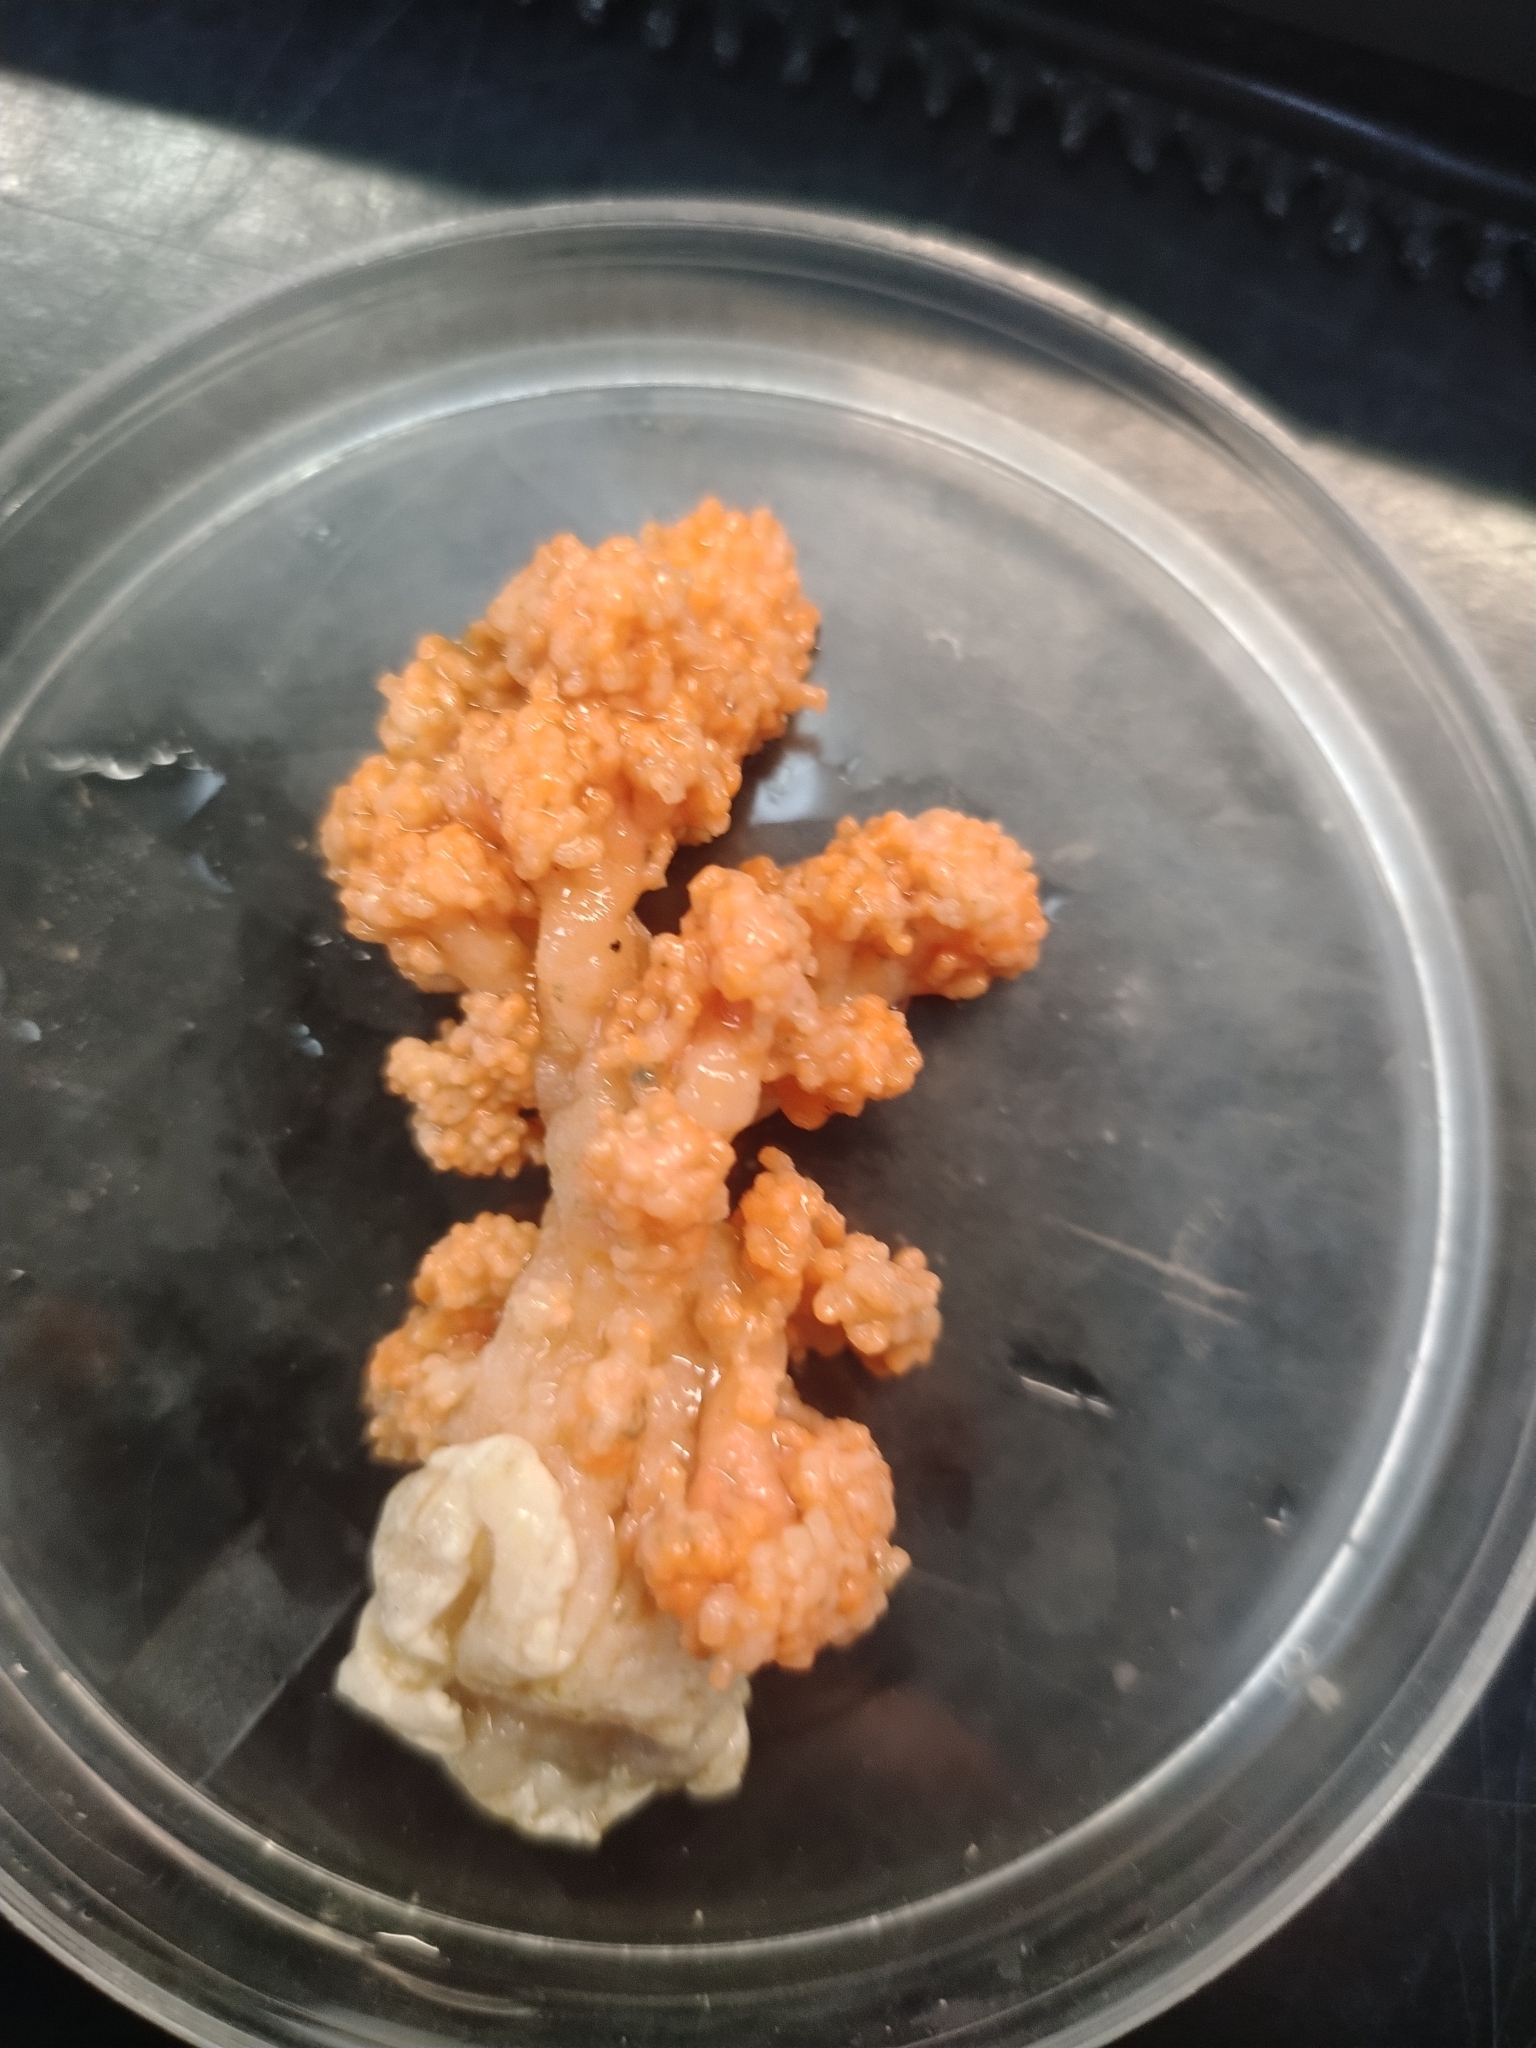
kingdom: Animalia
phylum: Cnidaria
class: Anthozoa
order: Malacalcyonacea
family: Alcyoniidae
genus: Gersemia
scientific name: Gersemia fruticosa
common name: Hedge carnation coral
